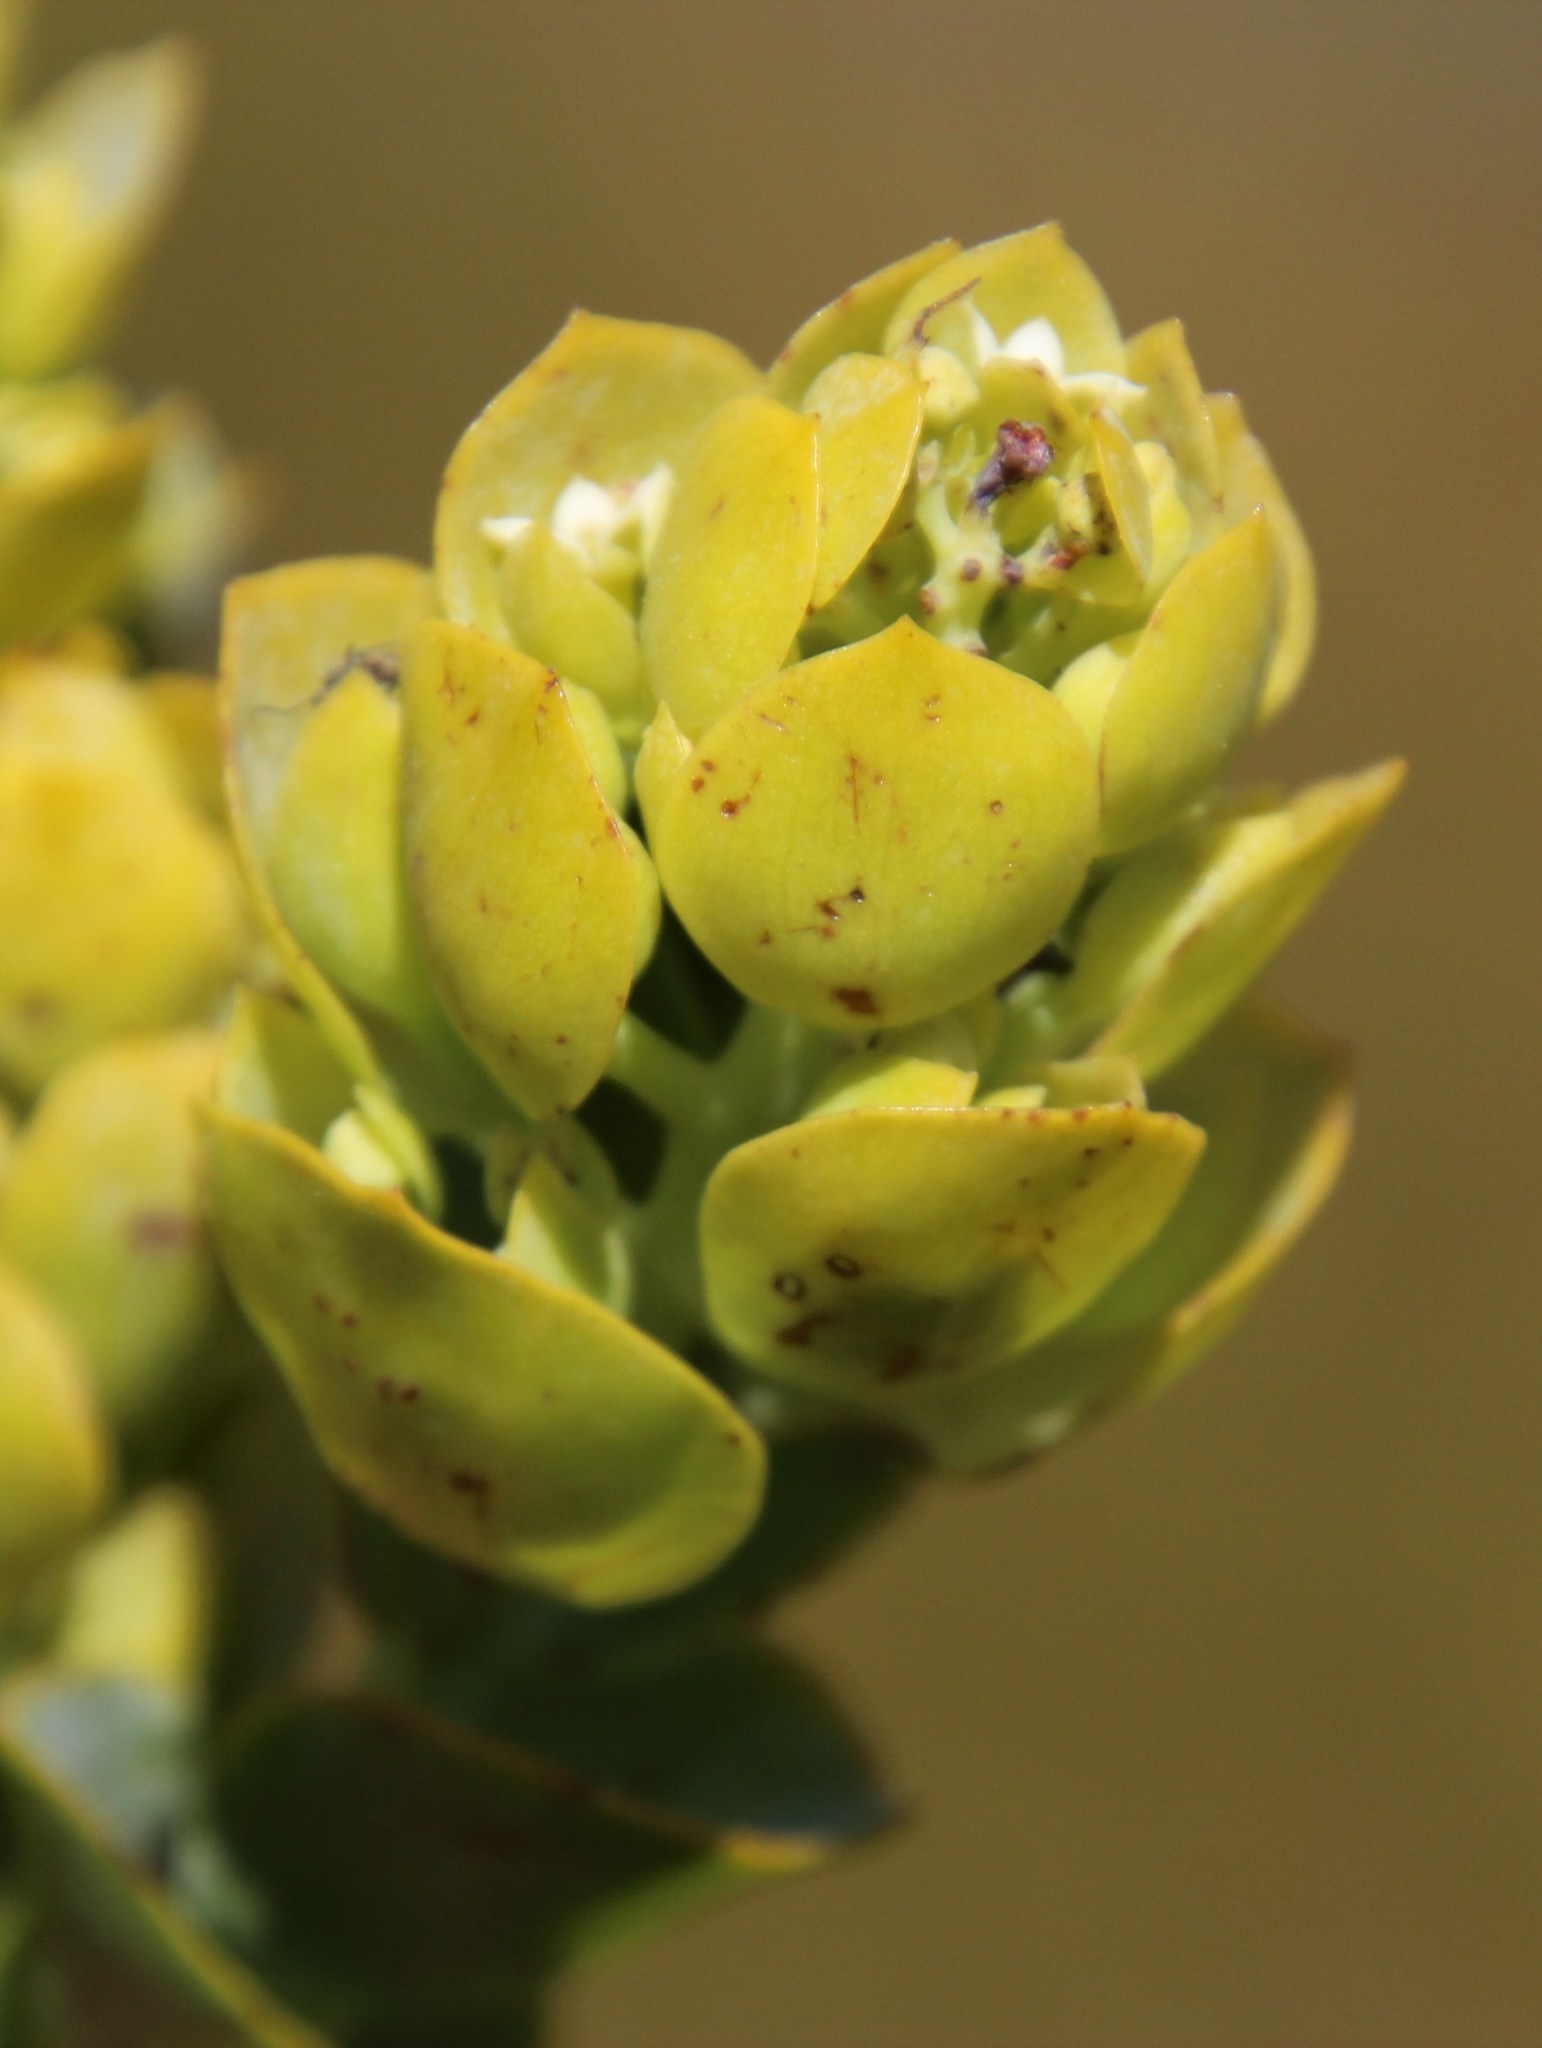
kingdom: Plantae
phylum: Tracheophyta
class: Magnoliopsida
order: Santalales
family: Thesiaceae
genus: Thesium
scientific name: Thesium euphorbioides
